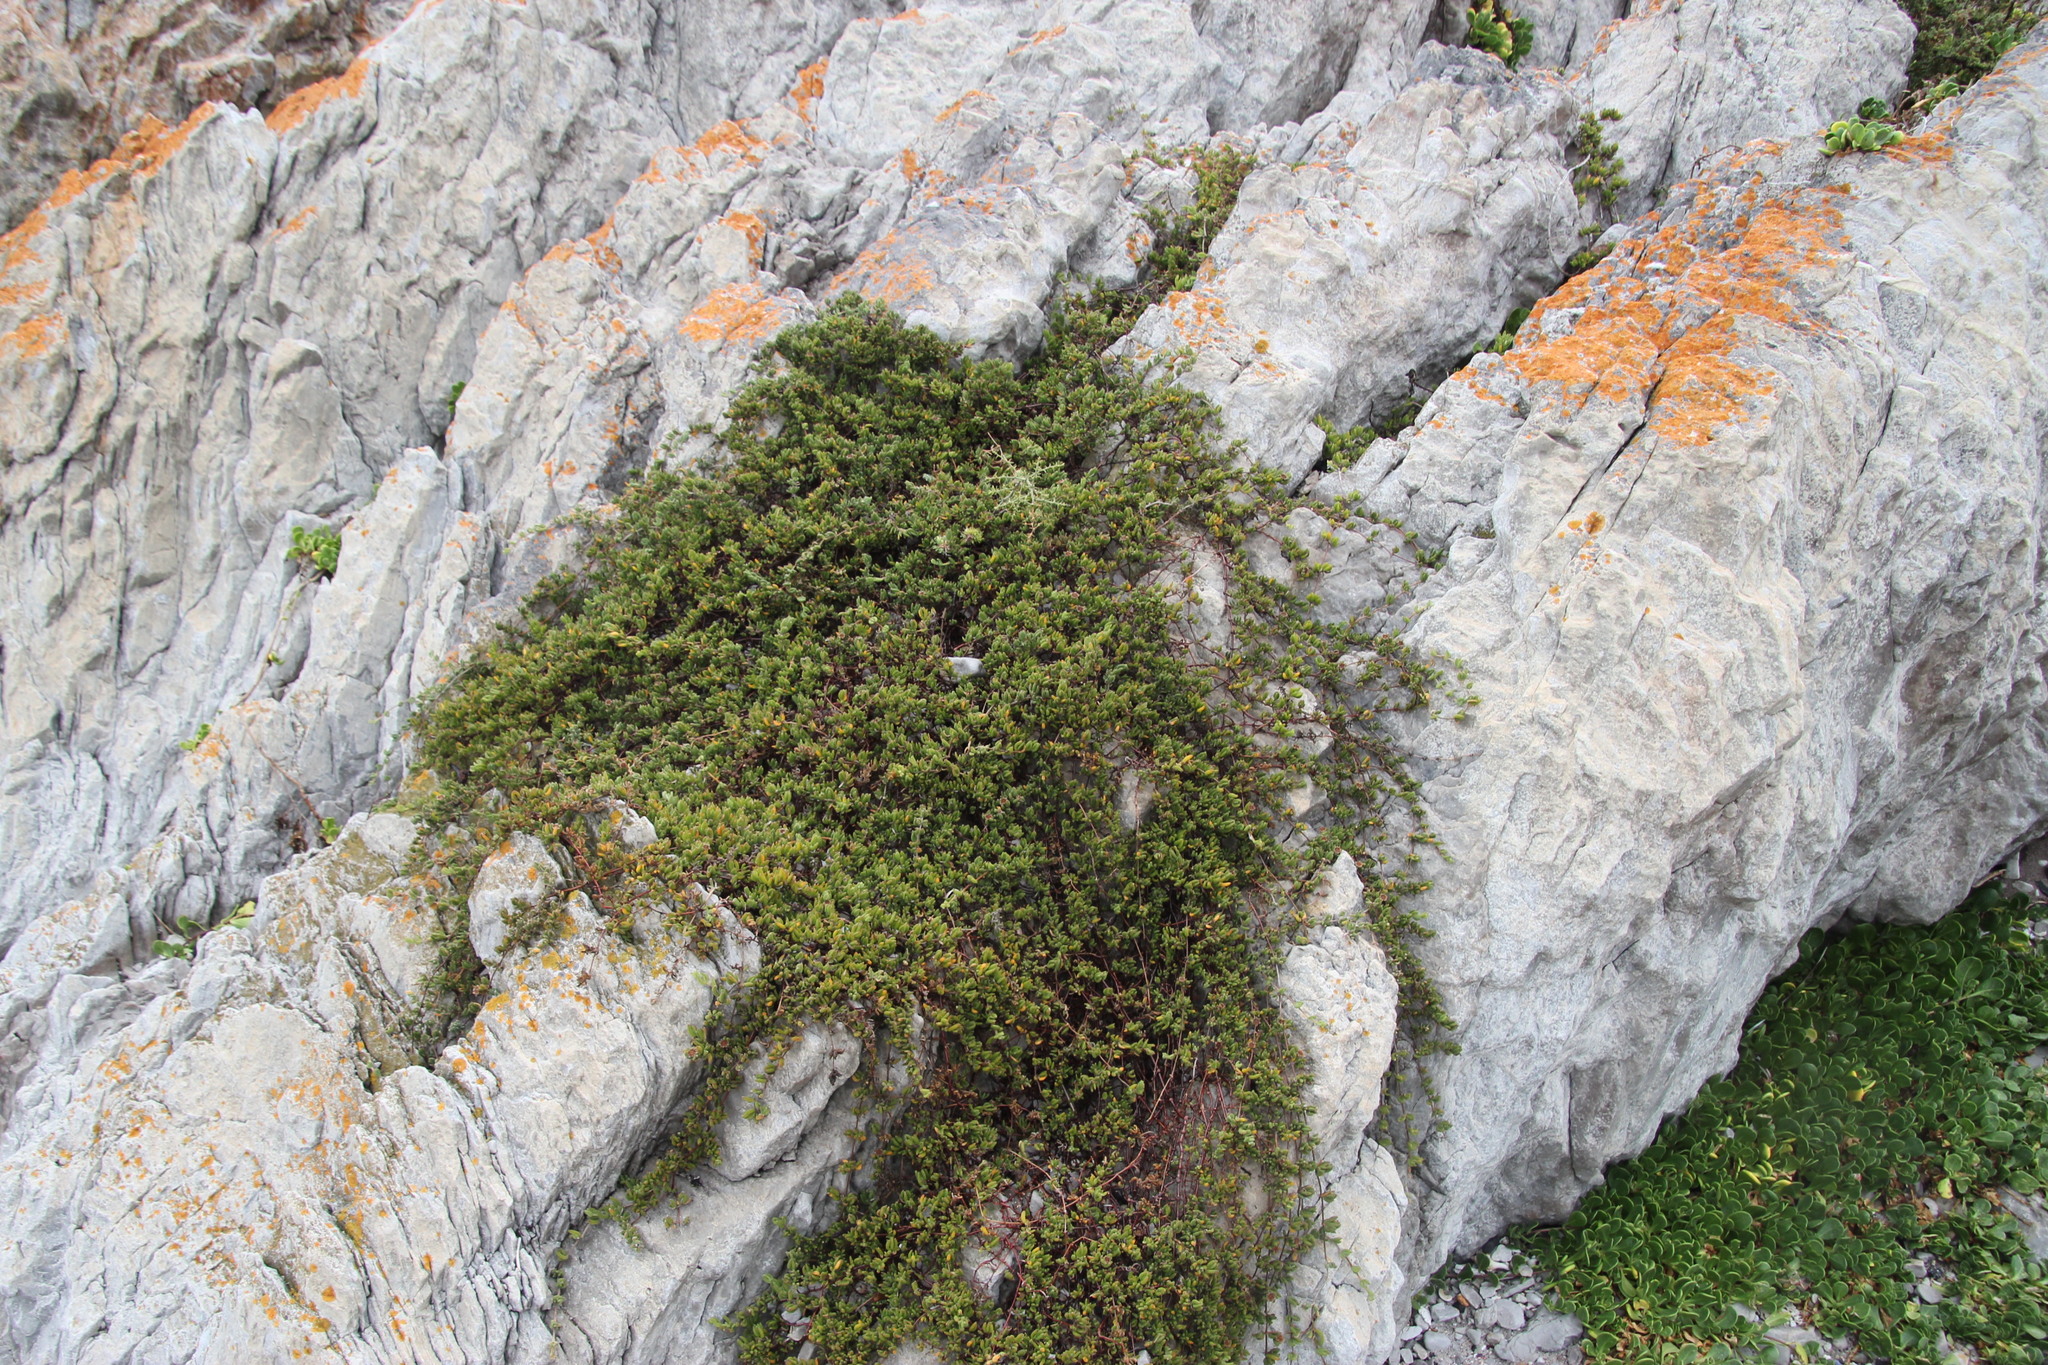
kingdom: Plantae
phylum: Tracheophyta
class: Magnoliopsida
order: Caryophyllales
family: Aizoaceae
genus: Drosanthemum
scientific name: Drosanthemum candens
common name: Rodondo-creeper
